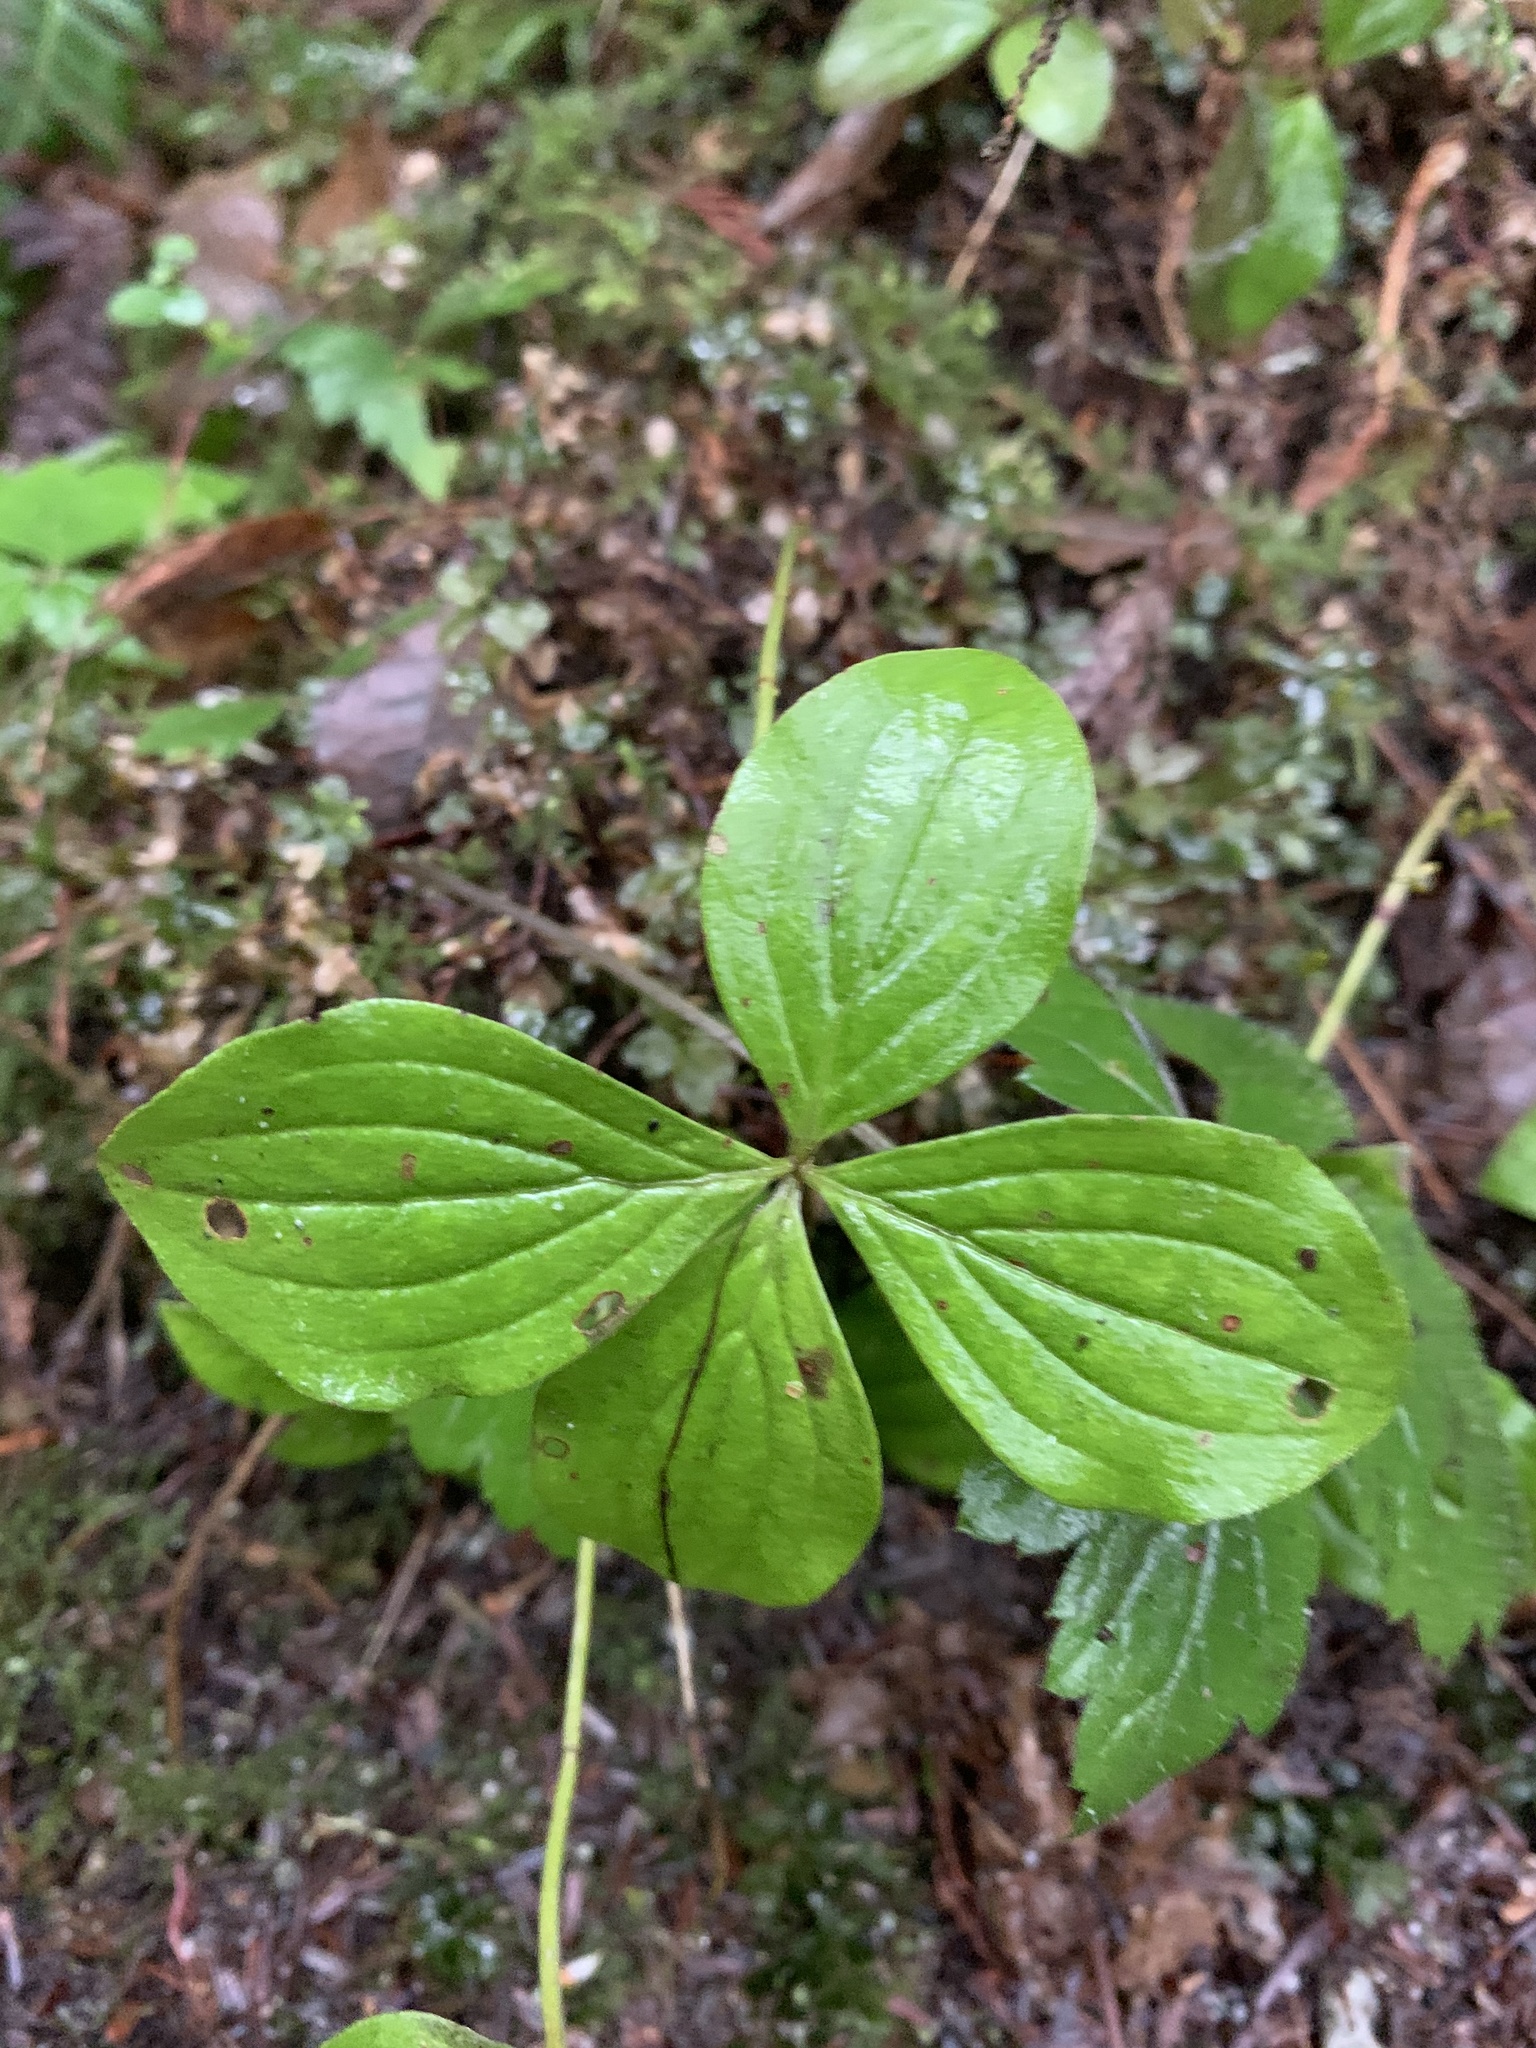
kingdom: Plantae
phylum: Tracheophyta
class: Magnoliopsida
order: Cornales
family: Cornaceae
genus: Cornus
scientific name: Cornus unalaschkensis
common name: Alaska bunchberry
